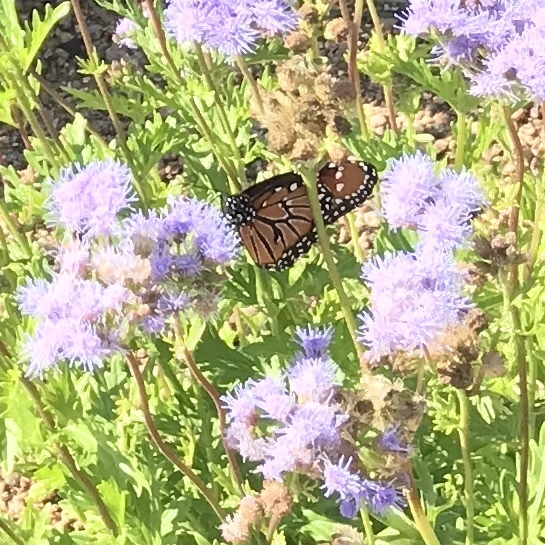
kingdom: Animalia
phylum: Arthropoda
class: Insecta
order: Lepidoptera
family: Nymphalidae
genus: Danaus
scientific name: Danaus gilippus
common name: Queen
